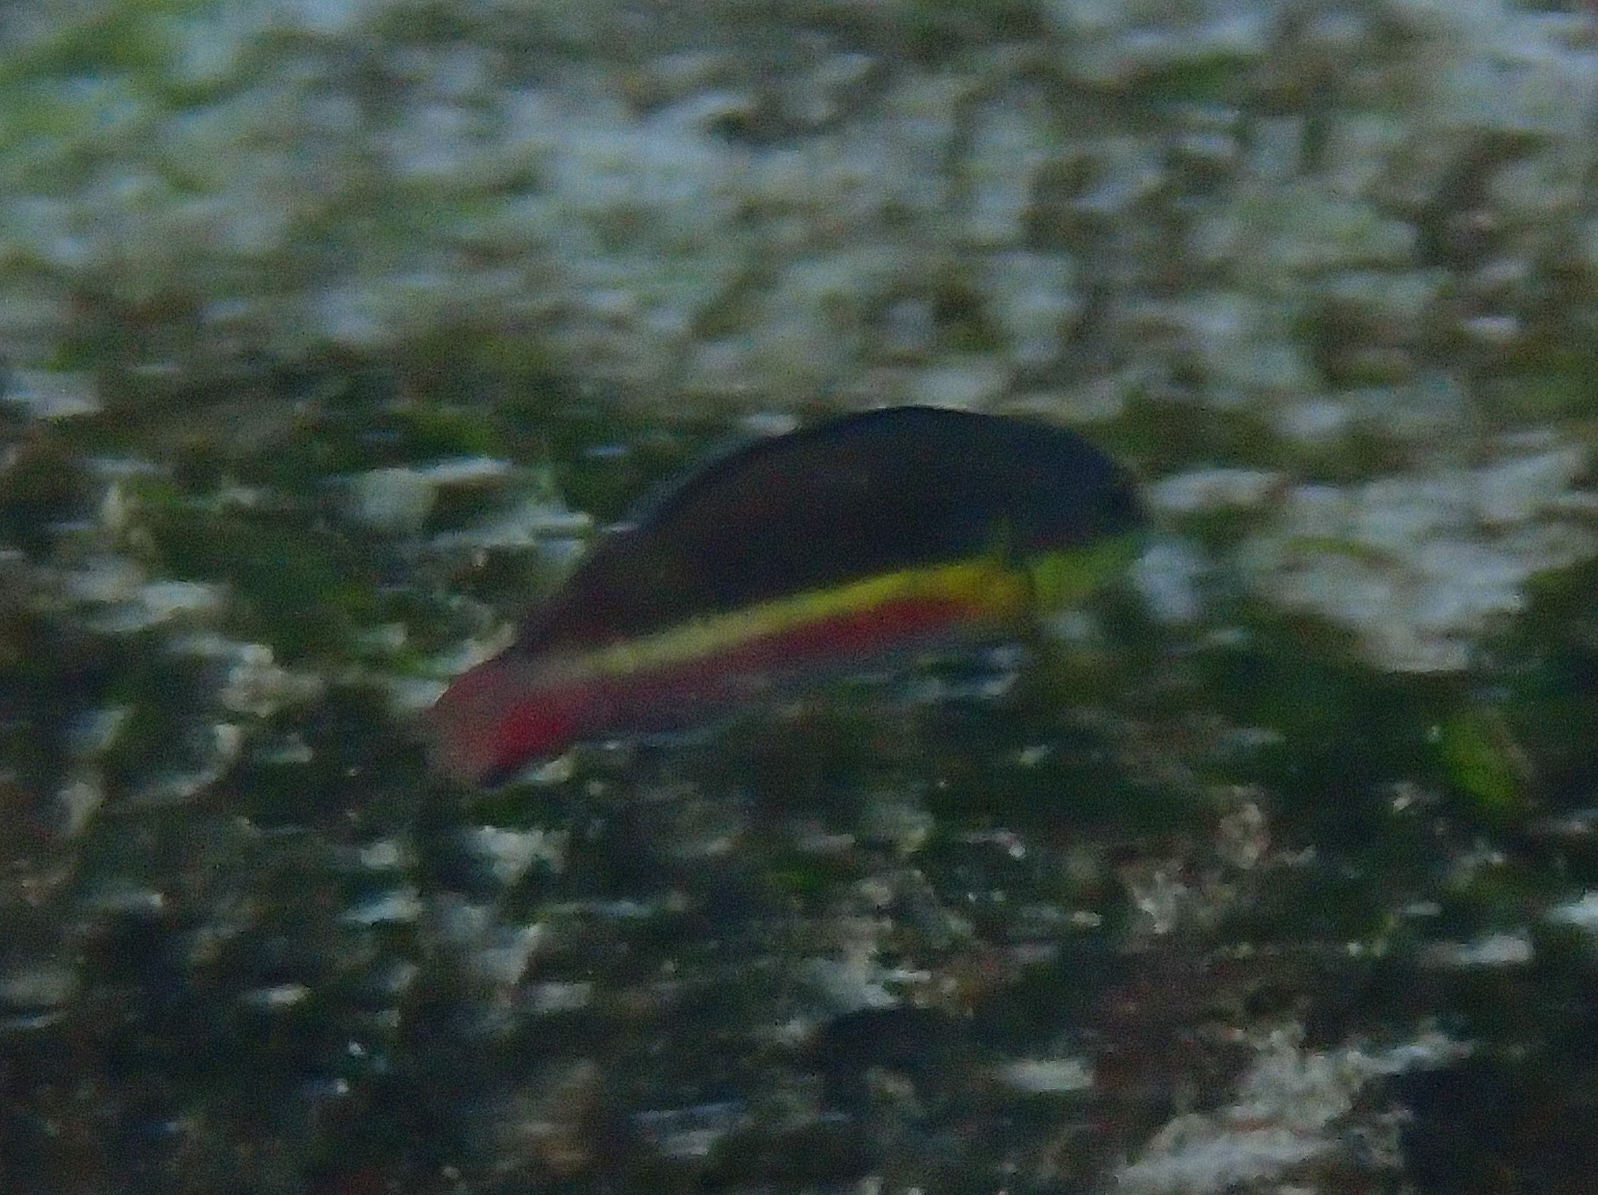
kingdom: Animalia
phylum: Chordata
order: Perciformes
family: Labridae
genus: Thalassoma
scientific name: Thalassoma lucasanum
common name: Cortez rainbow wrasse
